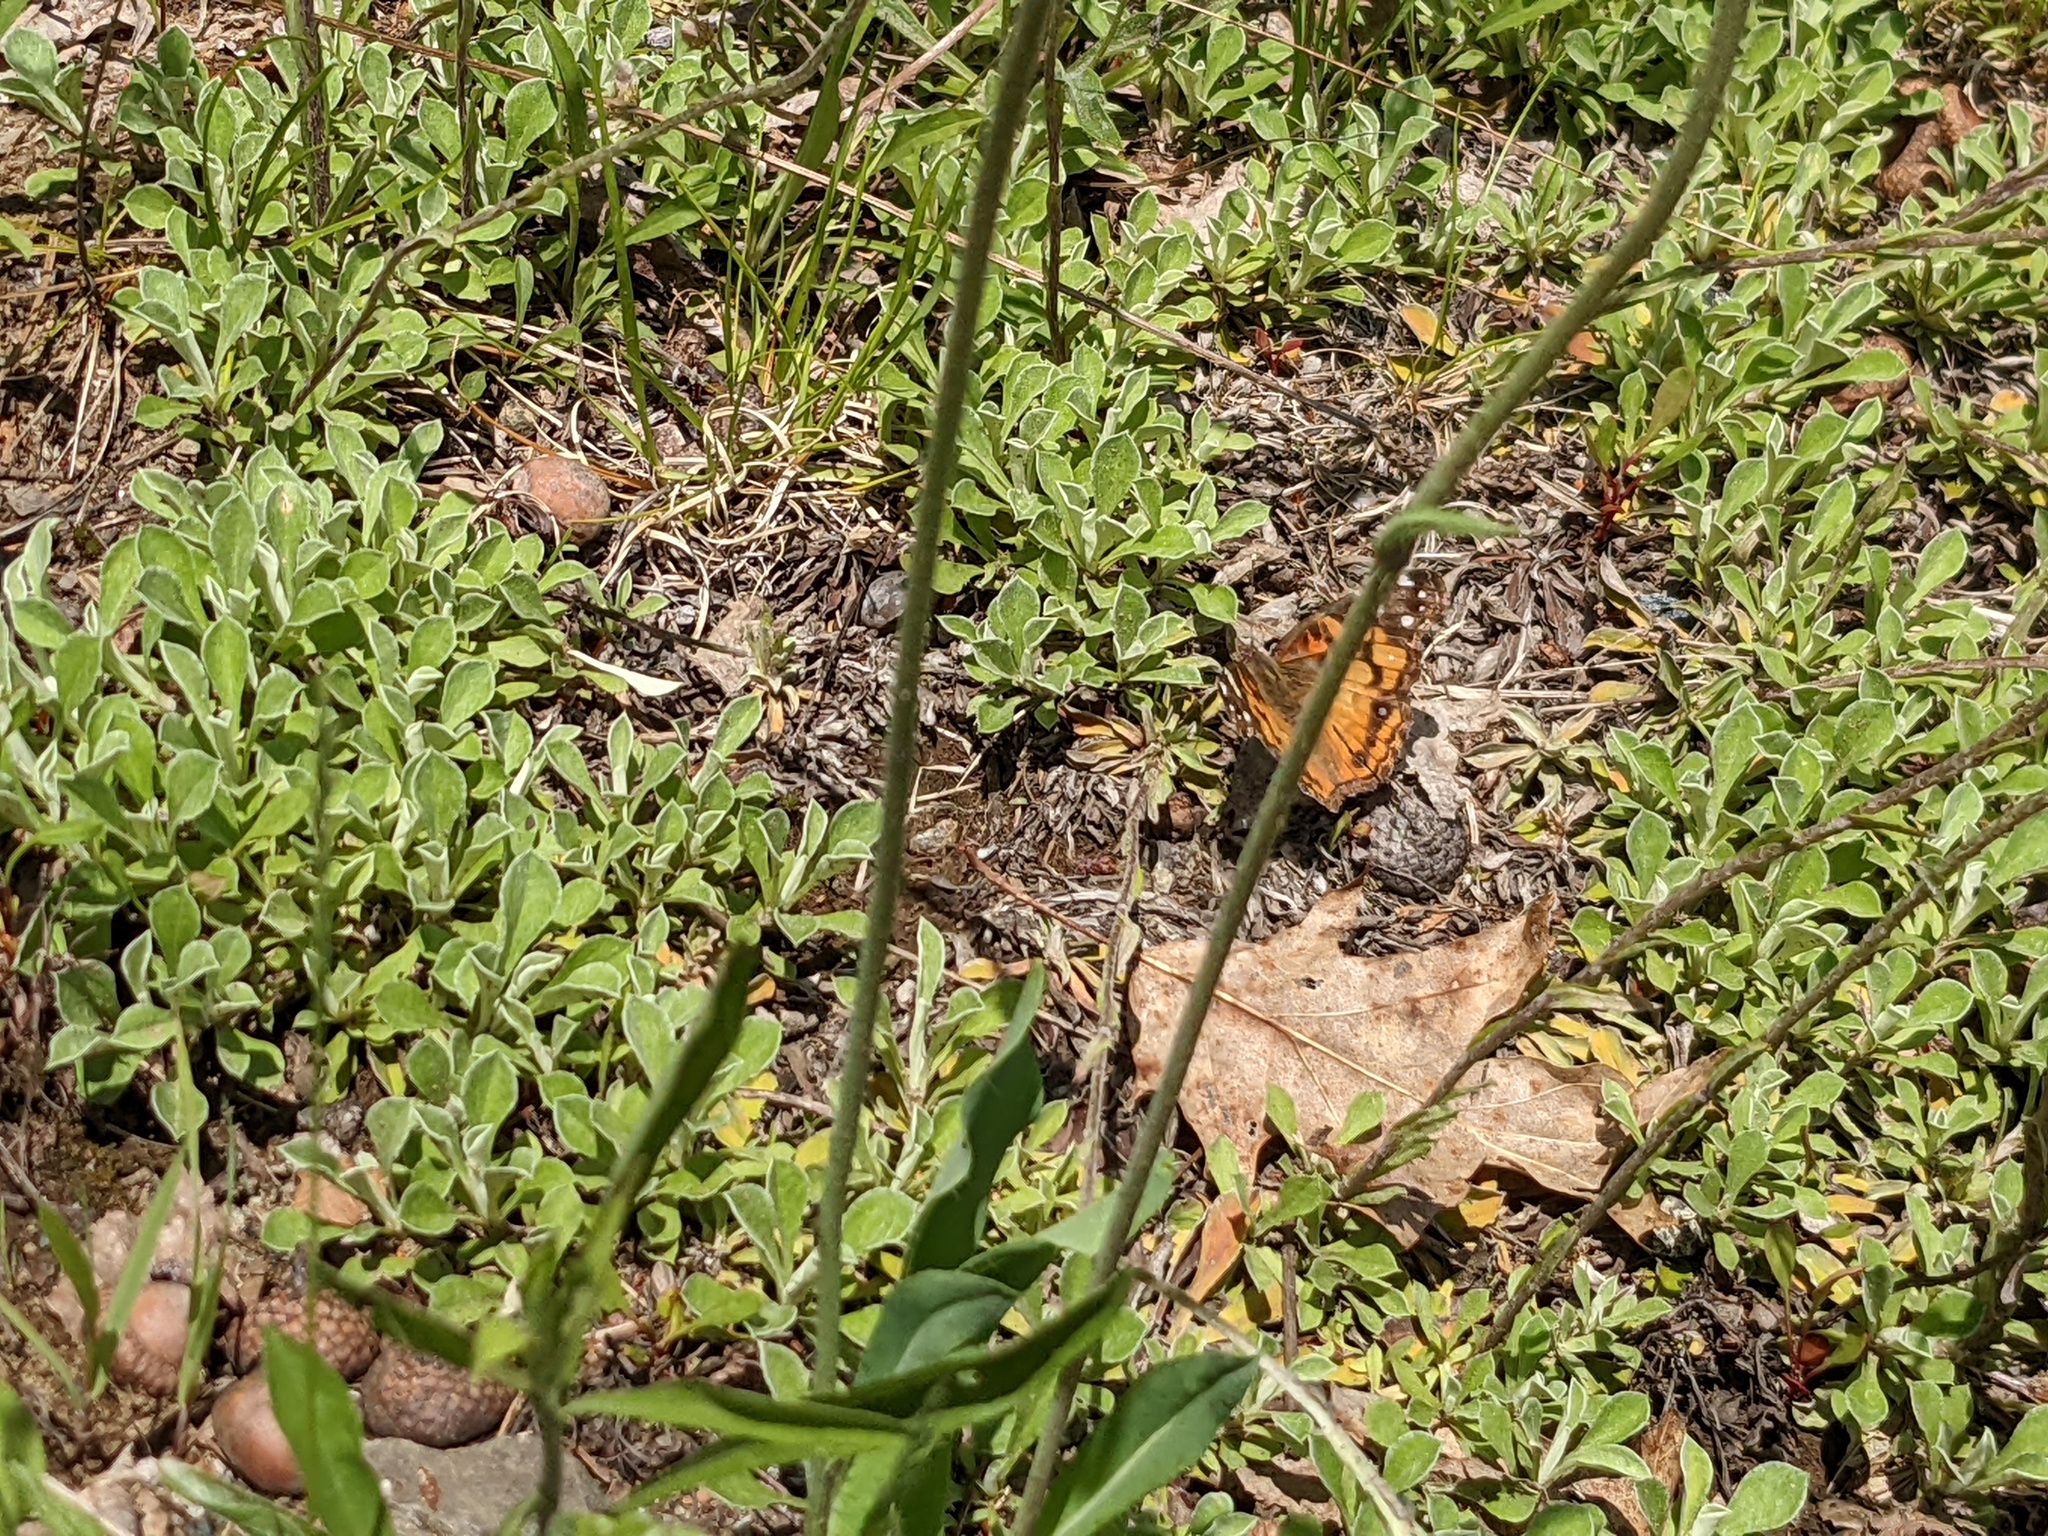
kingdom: Animalia
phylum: Arthropoda
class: Insecta
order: Lepidoptera
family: Nymphalidae
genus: Vanessa
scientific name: Vanessa virginiensis
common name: American lady
